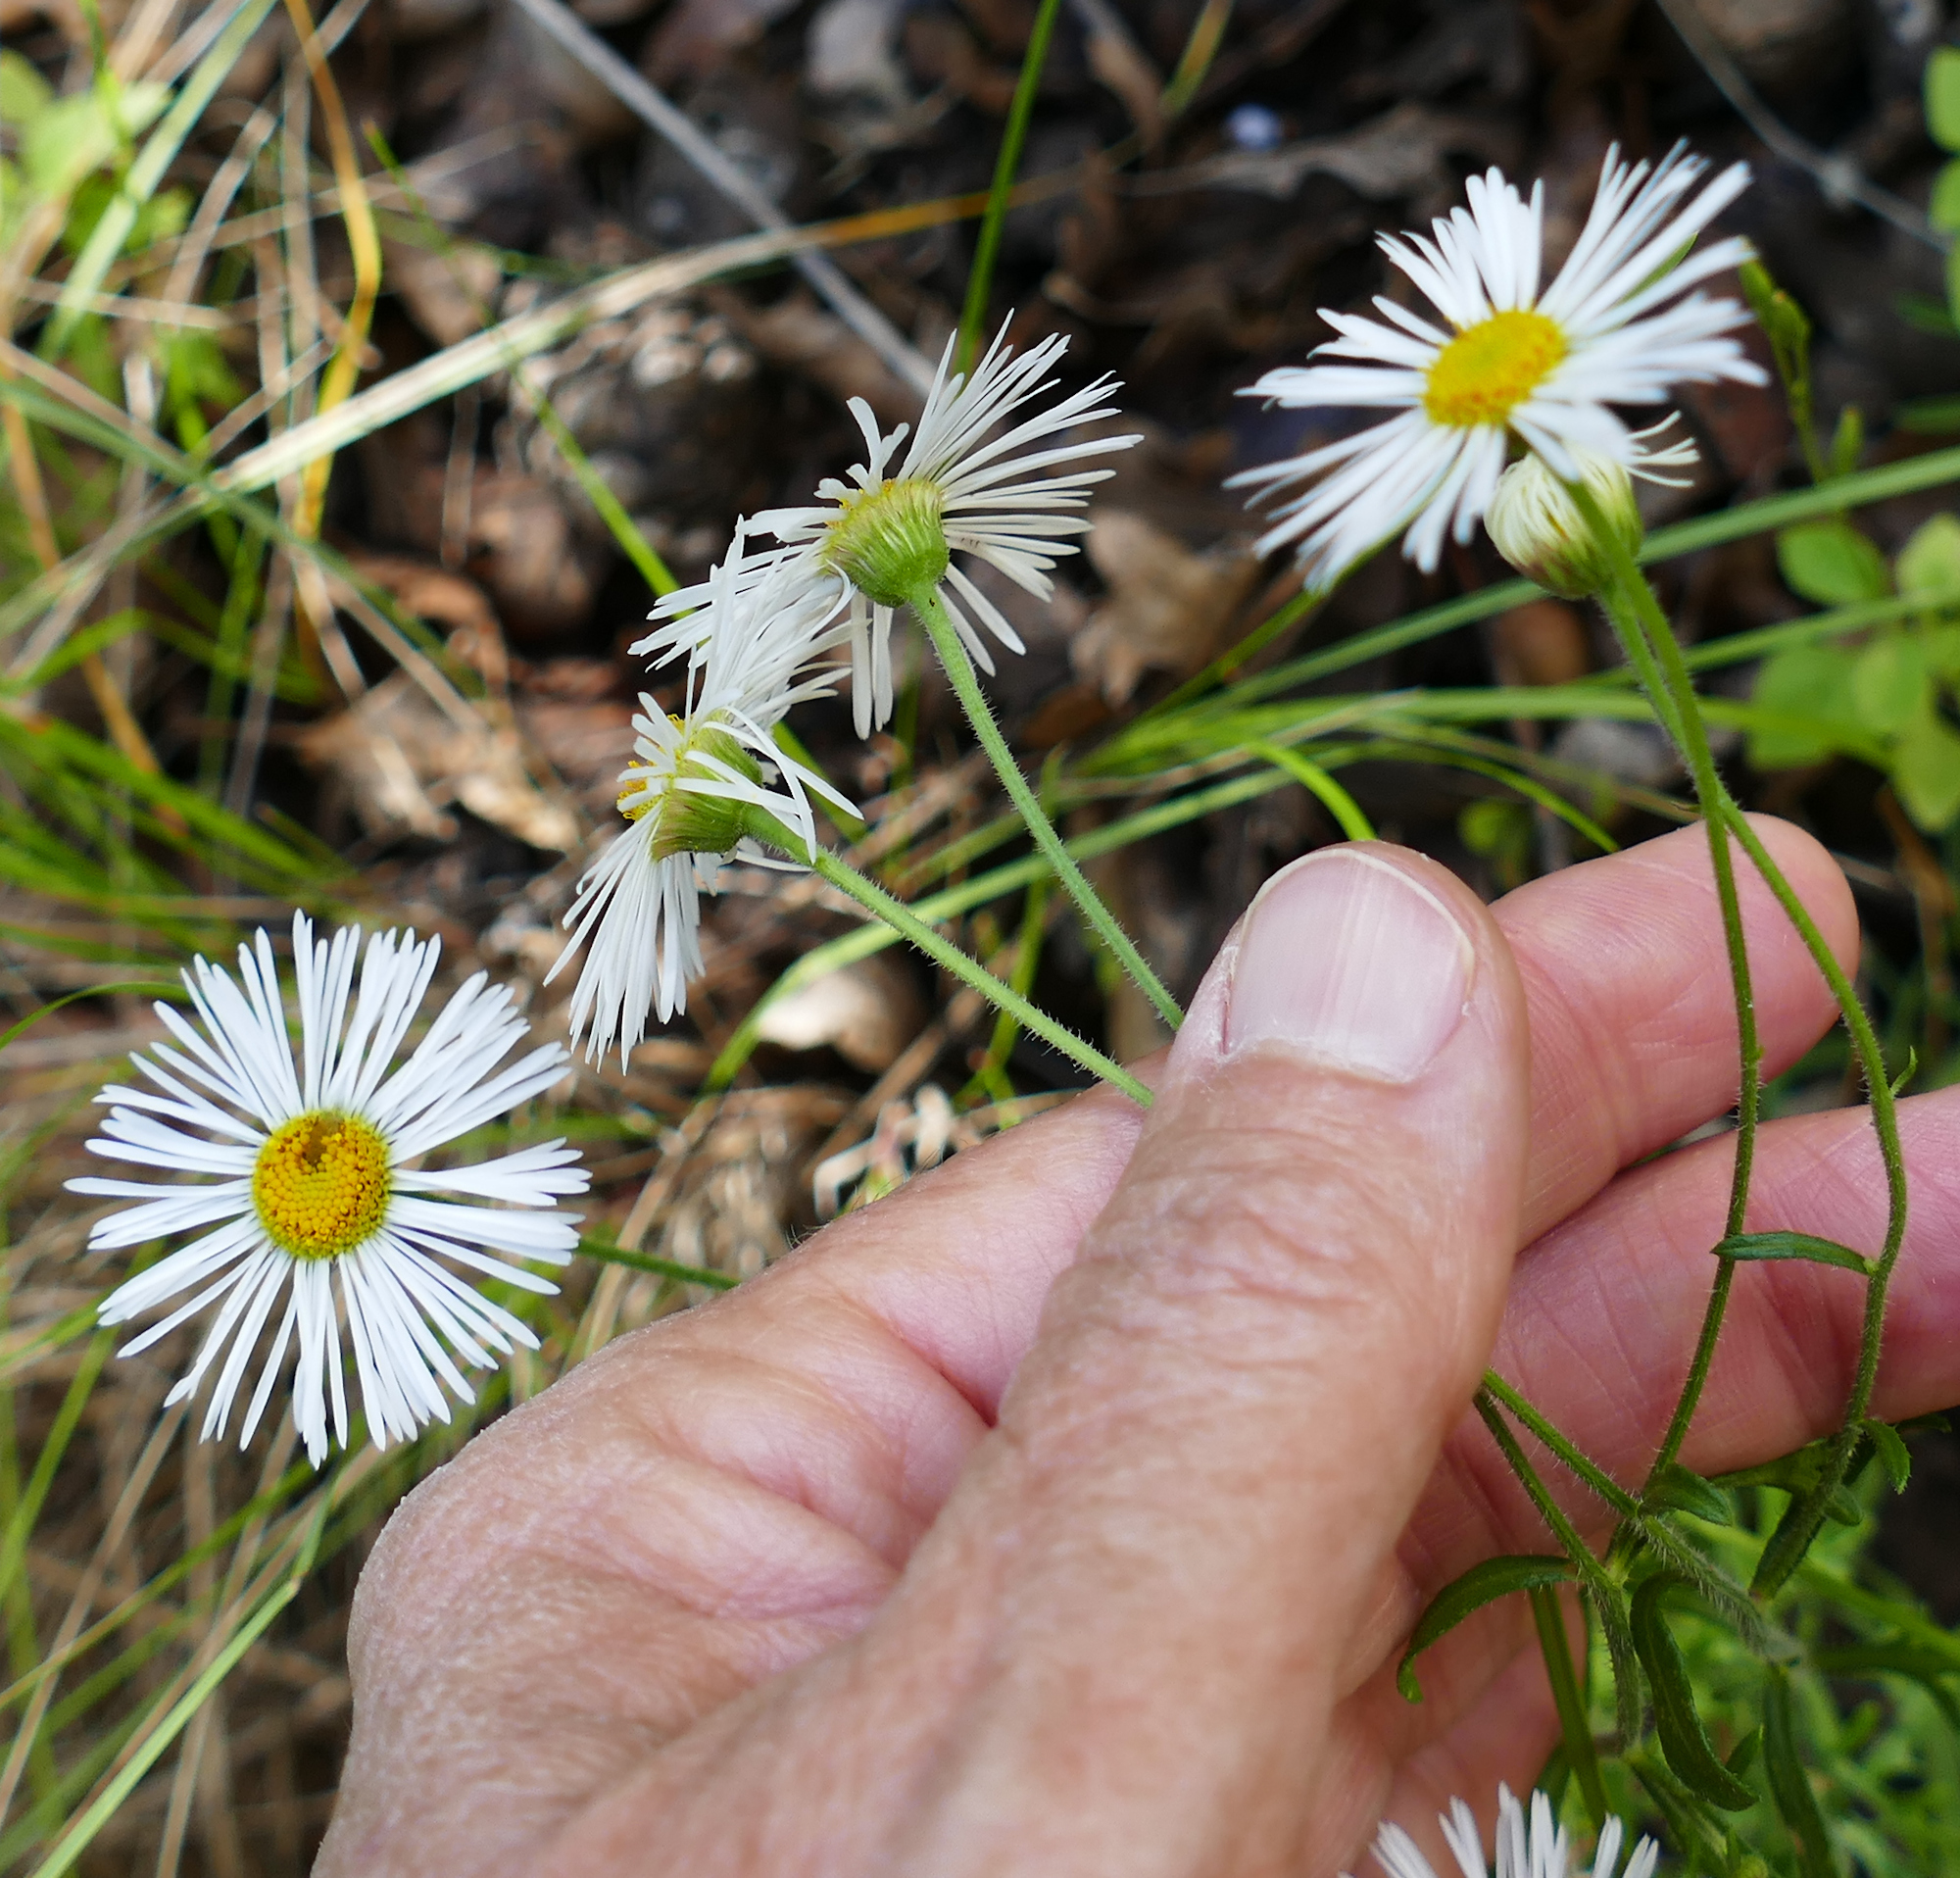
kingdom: Plantae
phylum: Tracheophyta
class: Magnoliopsida
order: Asterales
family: Asteraceae
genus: Erigeron
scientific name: Erigeron neomexicanus
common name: New mexico fleabane
